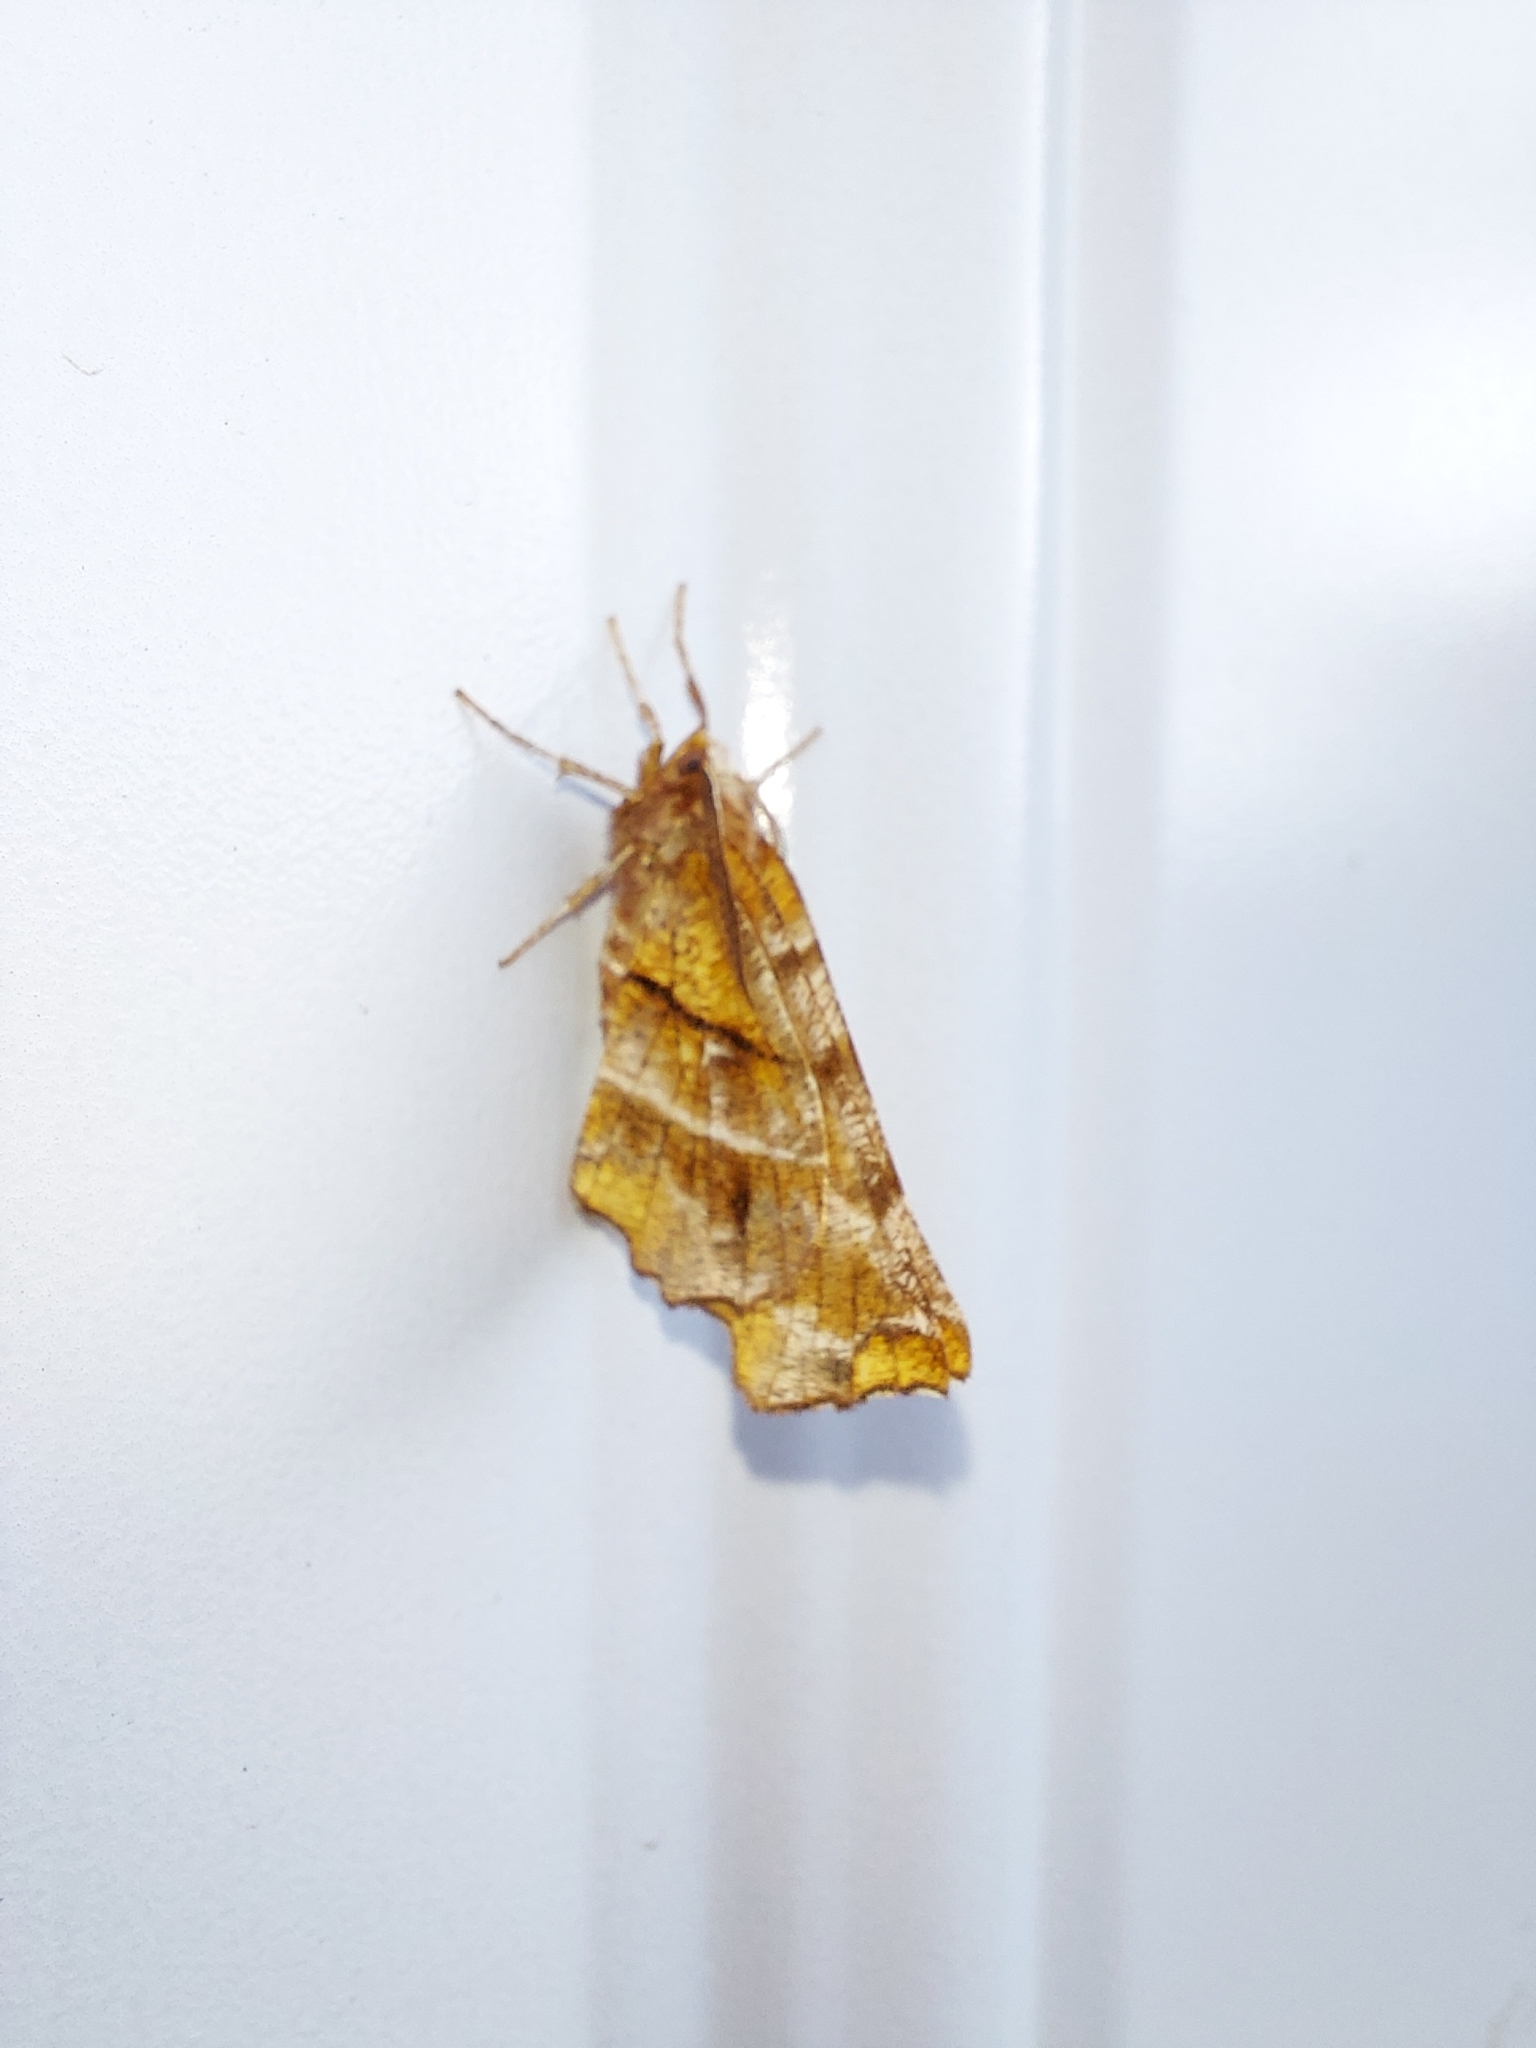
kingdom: Animalia
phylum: Arthropoda
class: Insecta
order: Lepidoptera
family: Geometridae
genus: Selenia
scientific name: Selenia alciphearia
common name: Brown-tipped thorn
